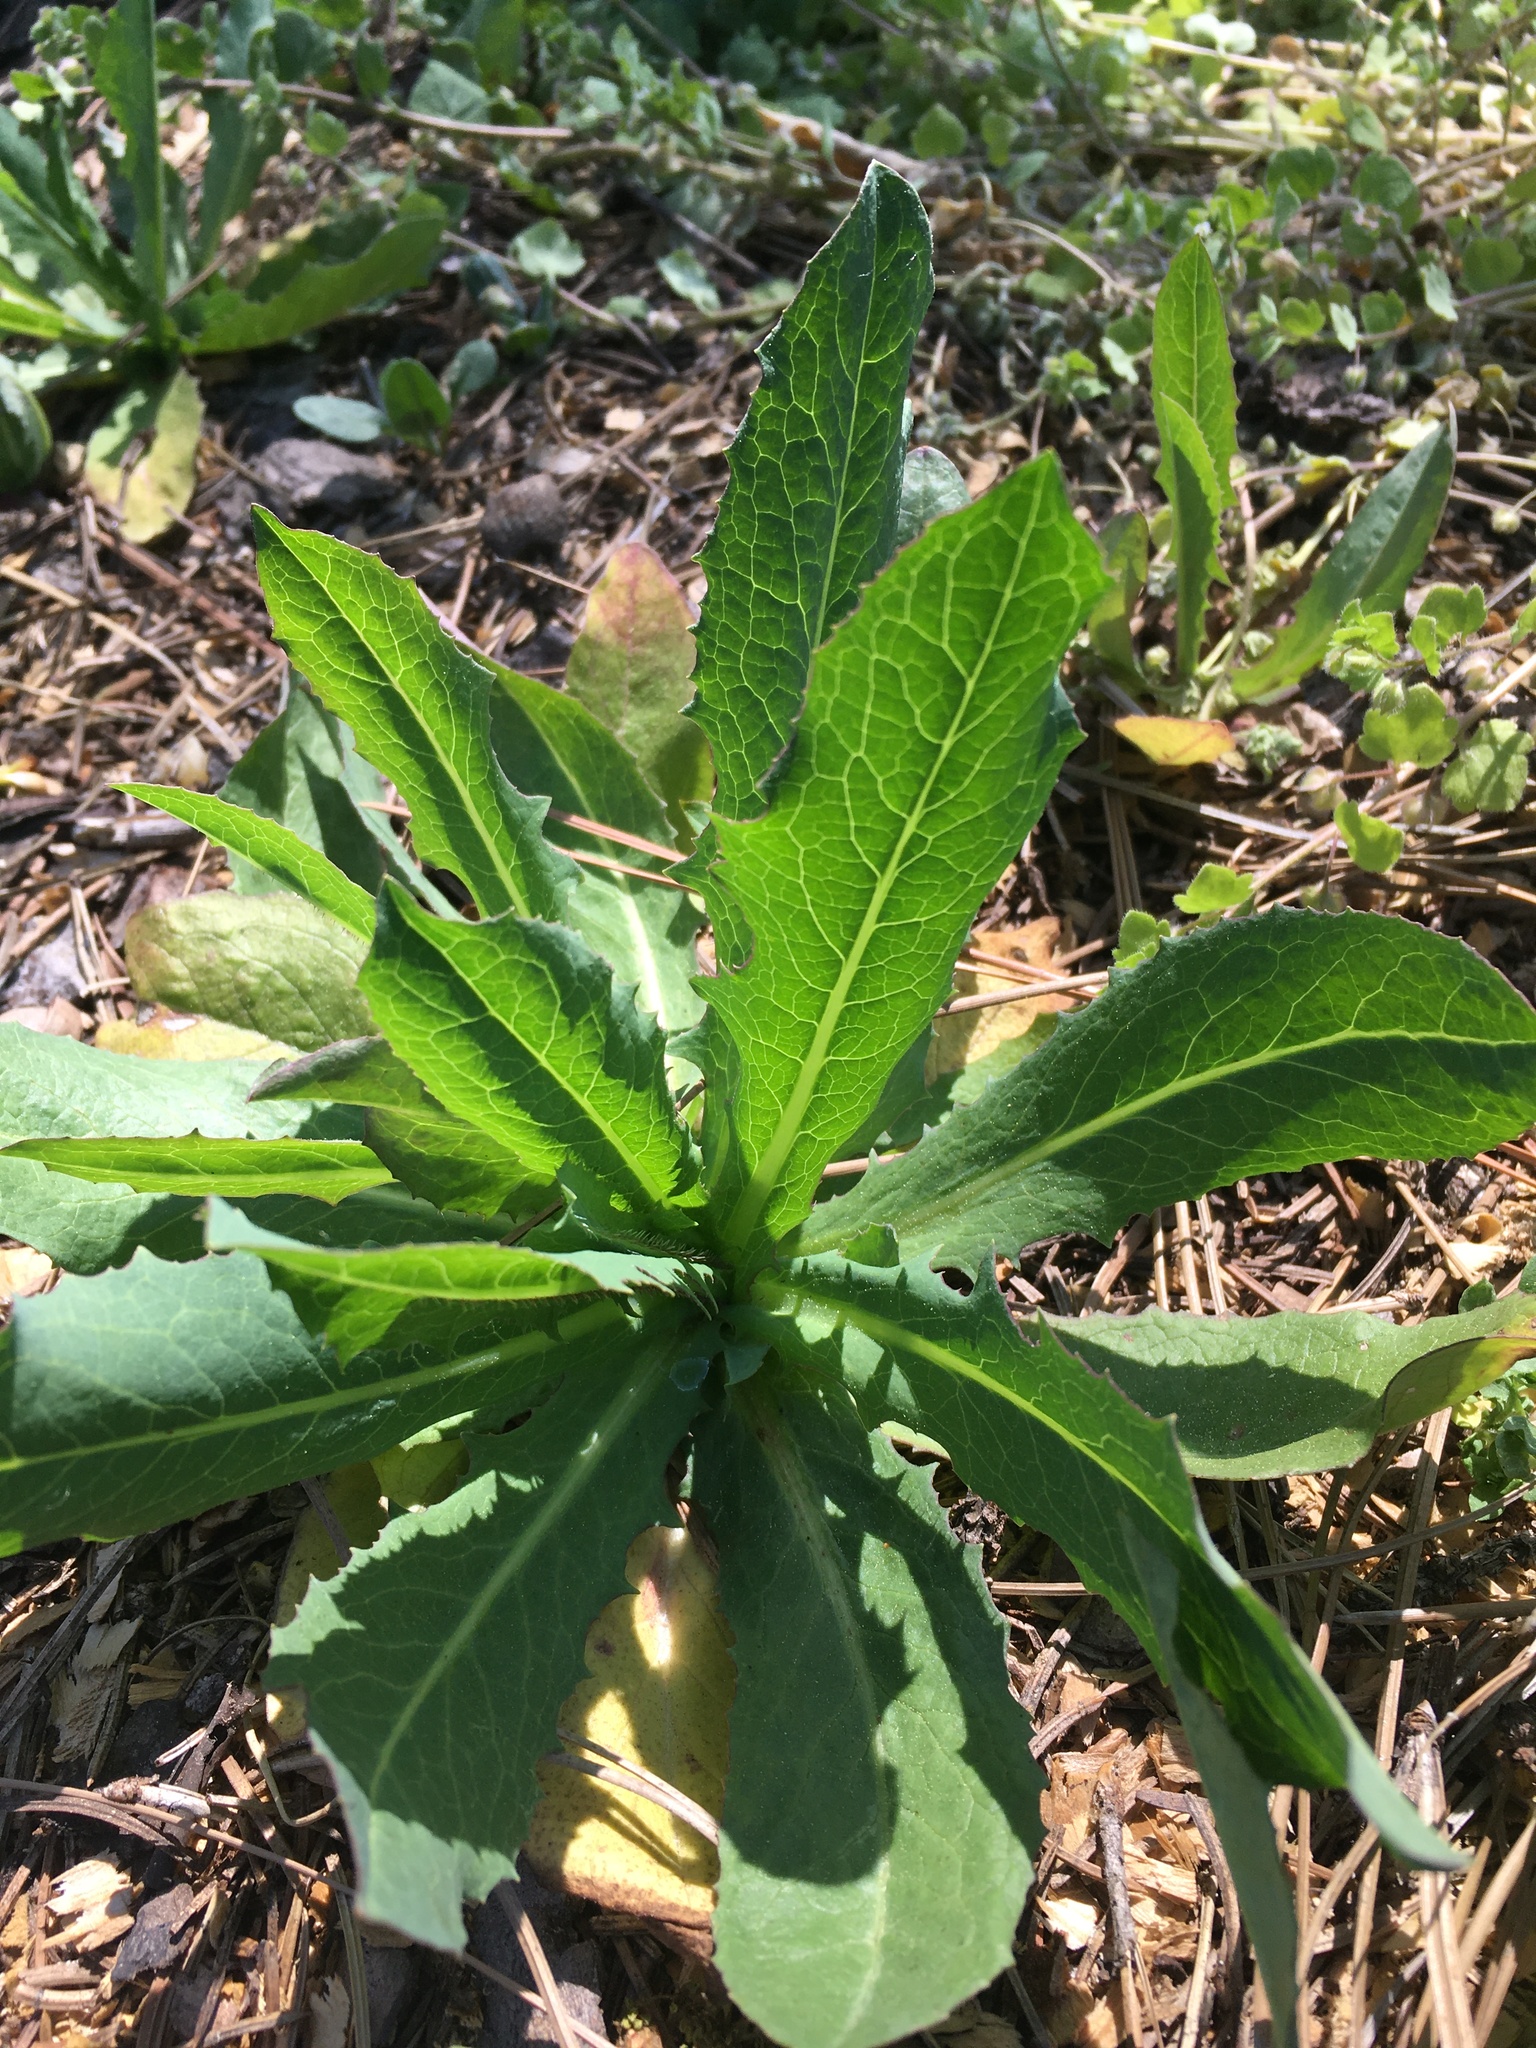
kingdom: Plantae
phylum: Tracheophyta
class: Magnoliopsida
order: Asterales
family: Asteraceae
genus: Lactuca
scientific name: Lactuca serriola
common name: Prickly lettuce
